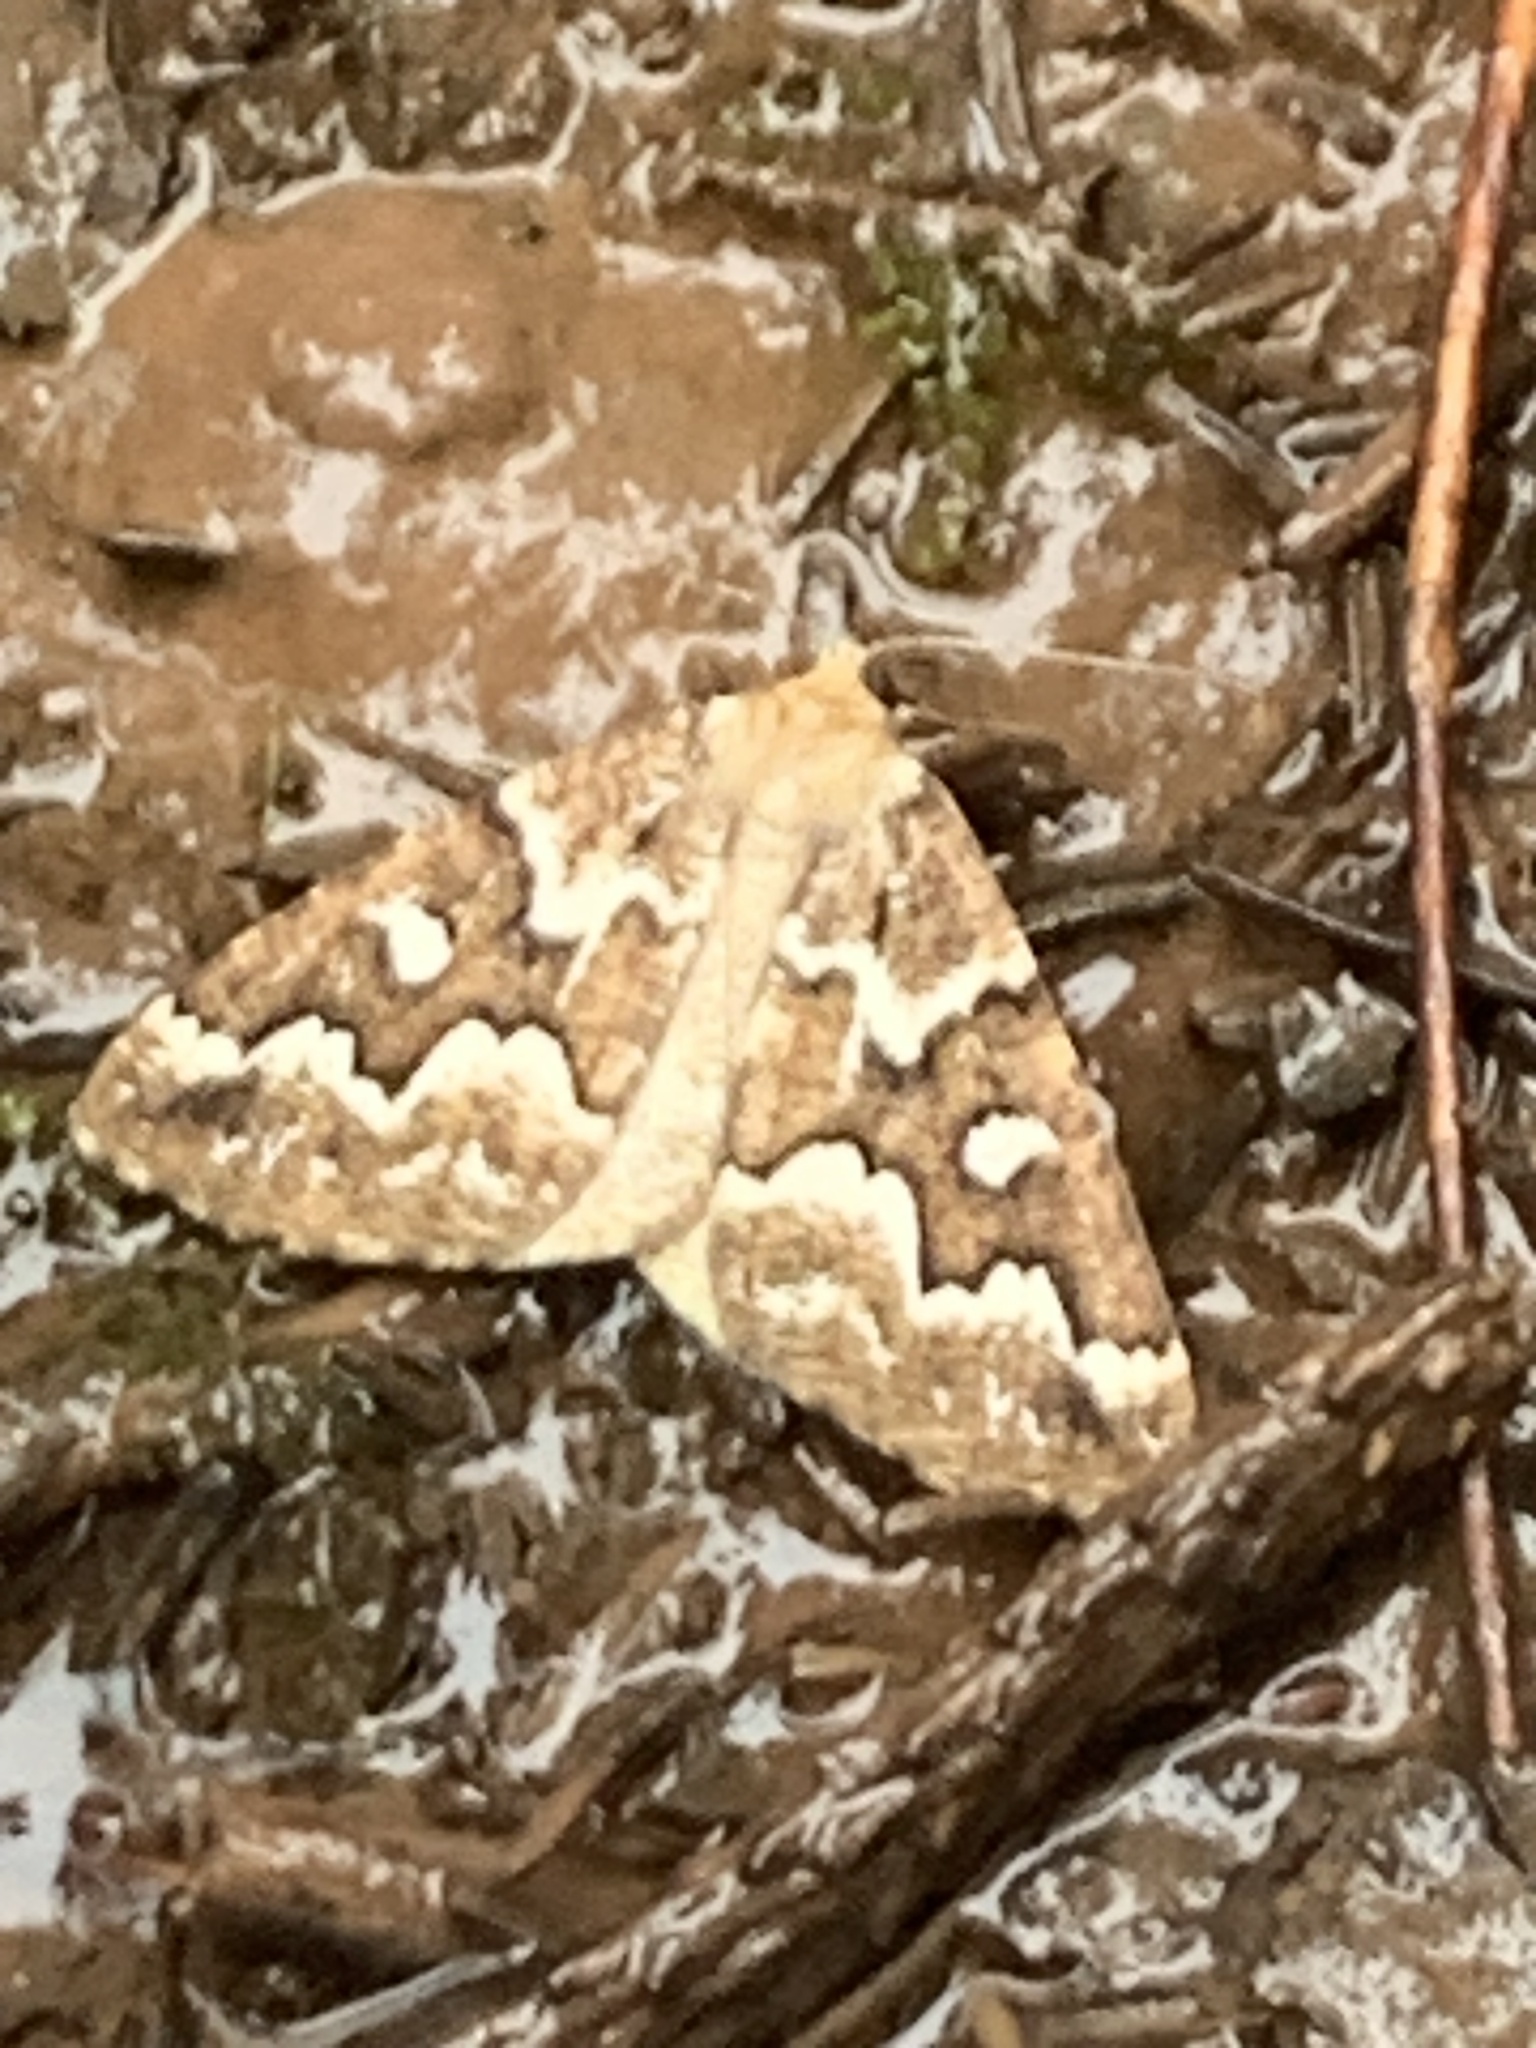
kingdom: Animalia
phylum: Arthropoda
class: Insecta
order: Lepidoptera
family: Geometridae
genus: Caripeta
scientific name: Caripeta divisata
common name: Gray spruce looper
